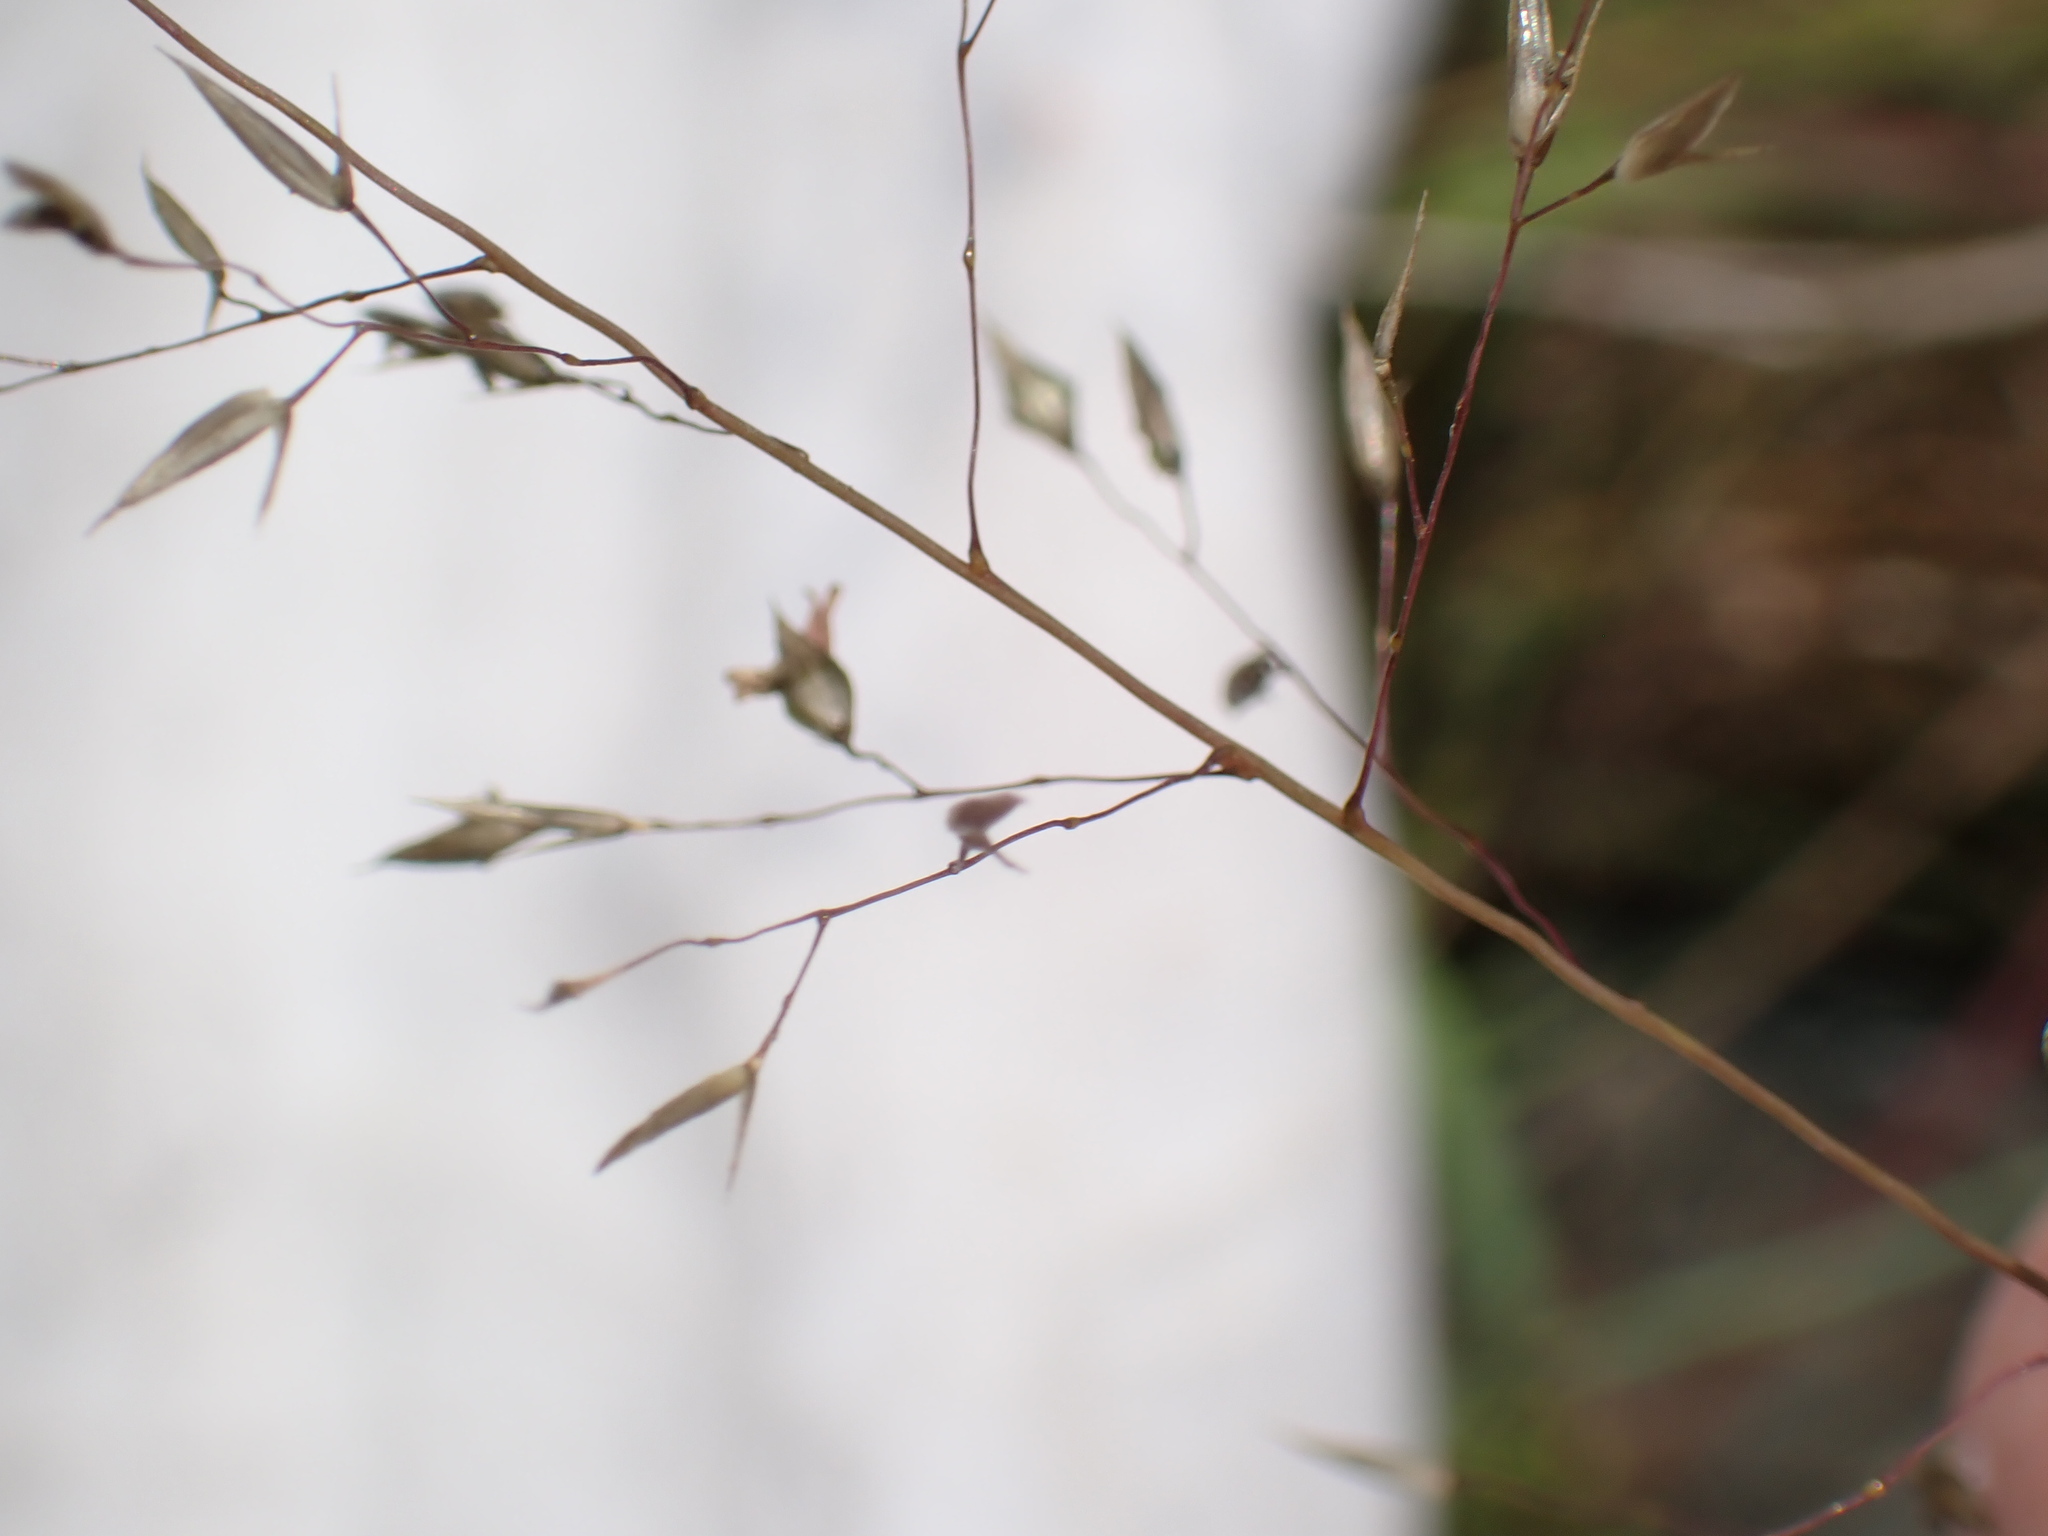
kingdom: Plantae
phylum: Tracheophyta
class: Liliopsida
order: Poales
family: Poaceae
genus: Sporobolus
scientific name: Sporobolus heterolepis
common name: Prairie dropseed
